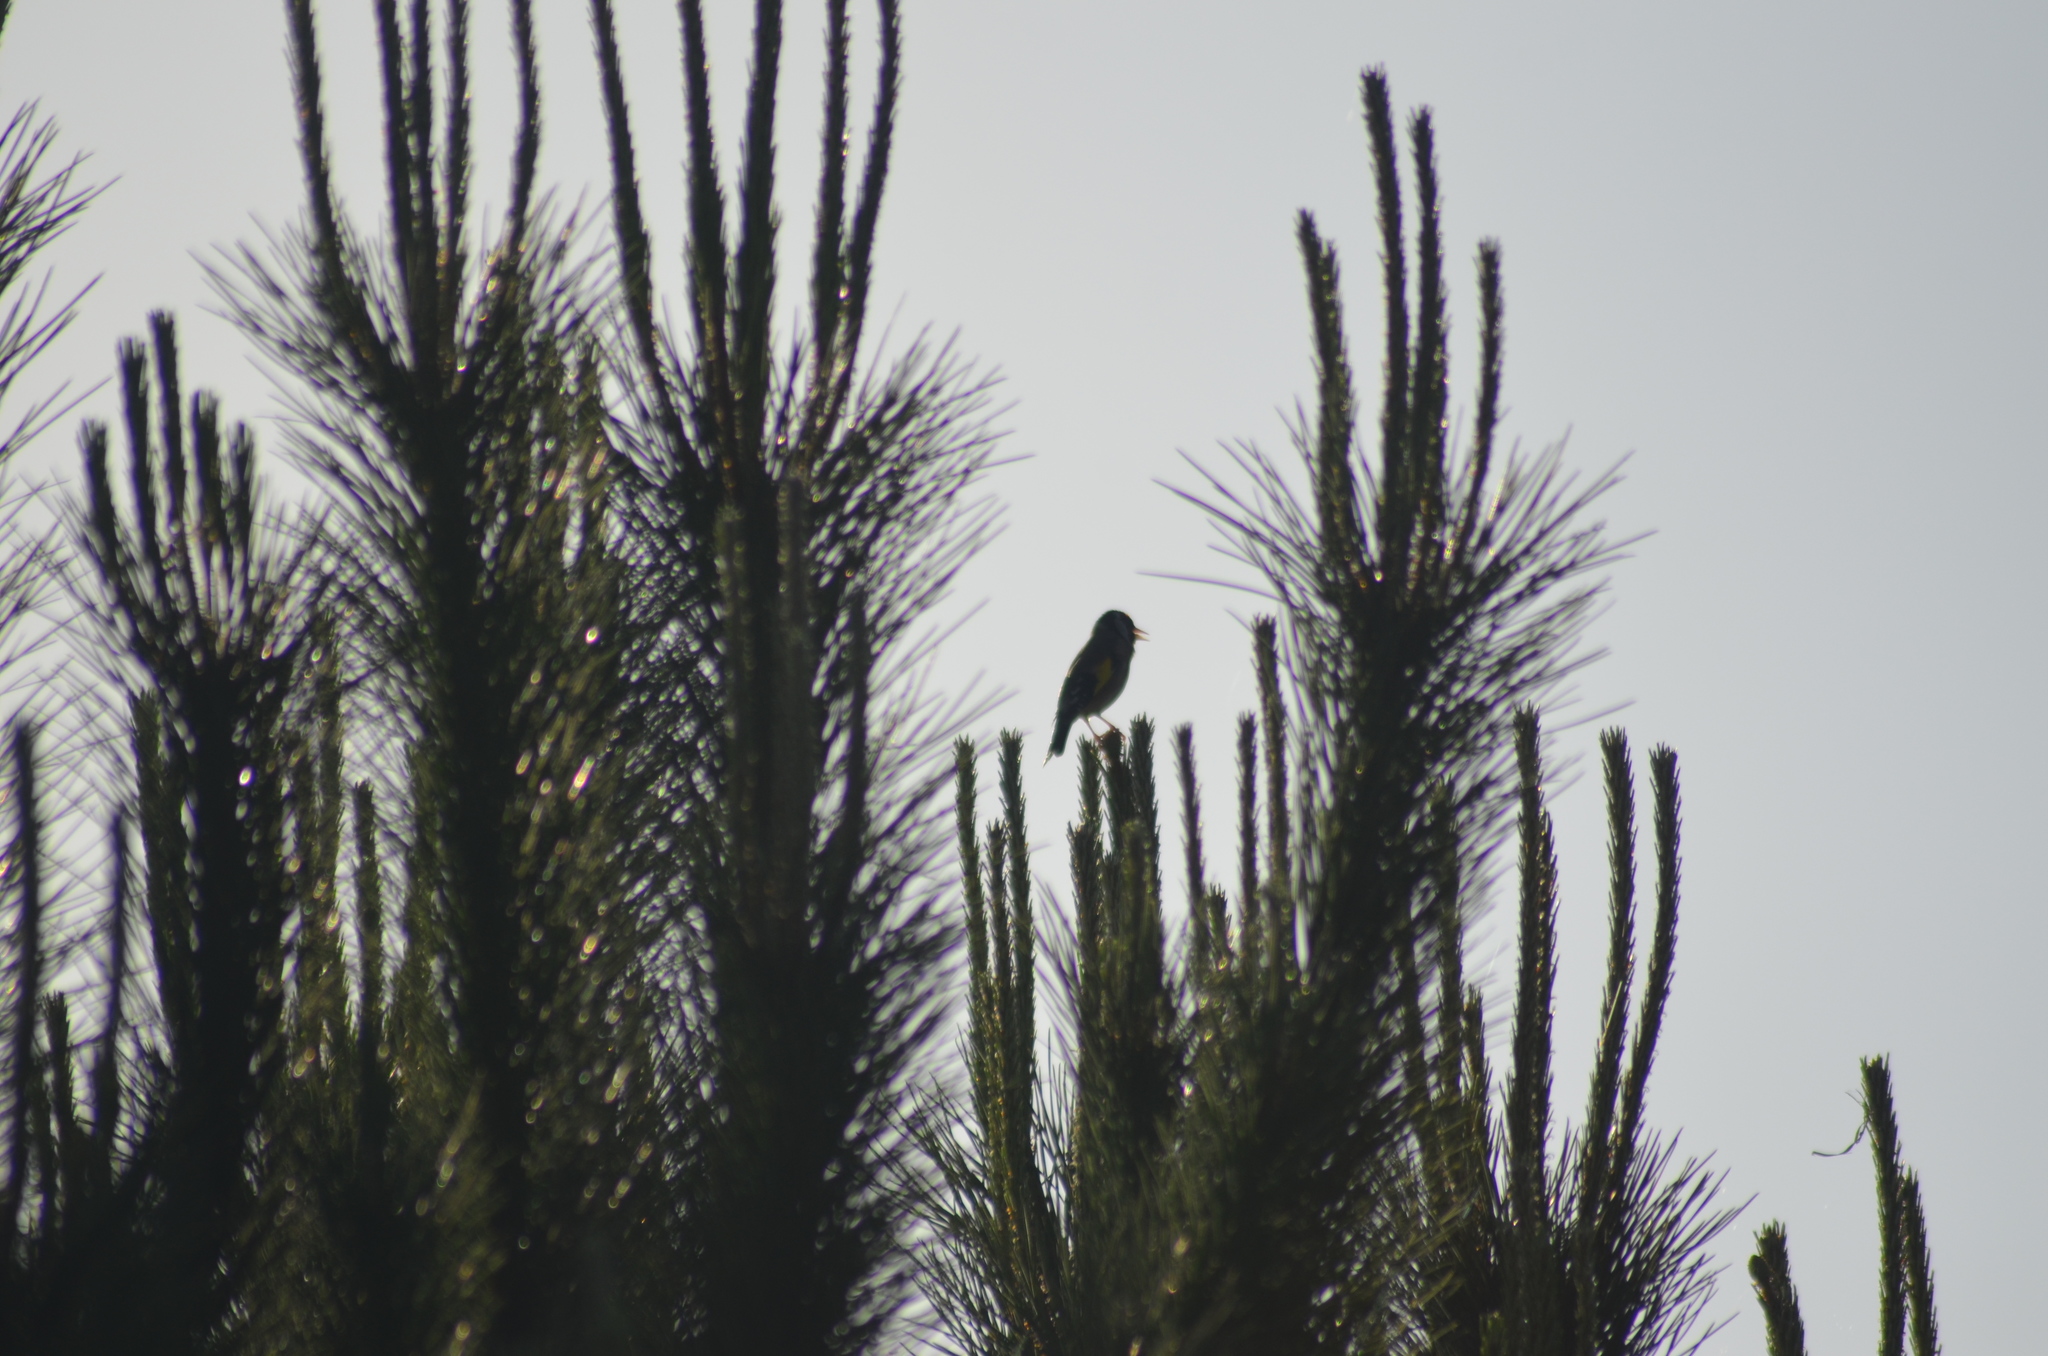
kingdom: Animalia
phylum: Chordata
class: Aves
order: Passeriformes
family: Fringillidae
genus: Carduelis
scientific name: Carduelis carduelis
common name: European goldfinch
